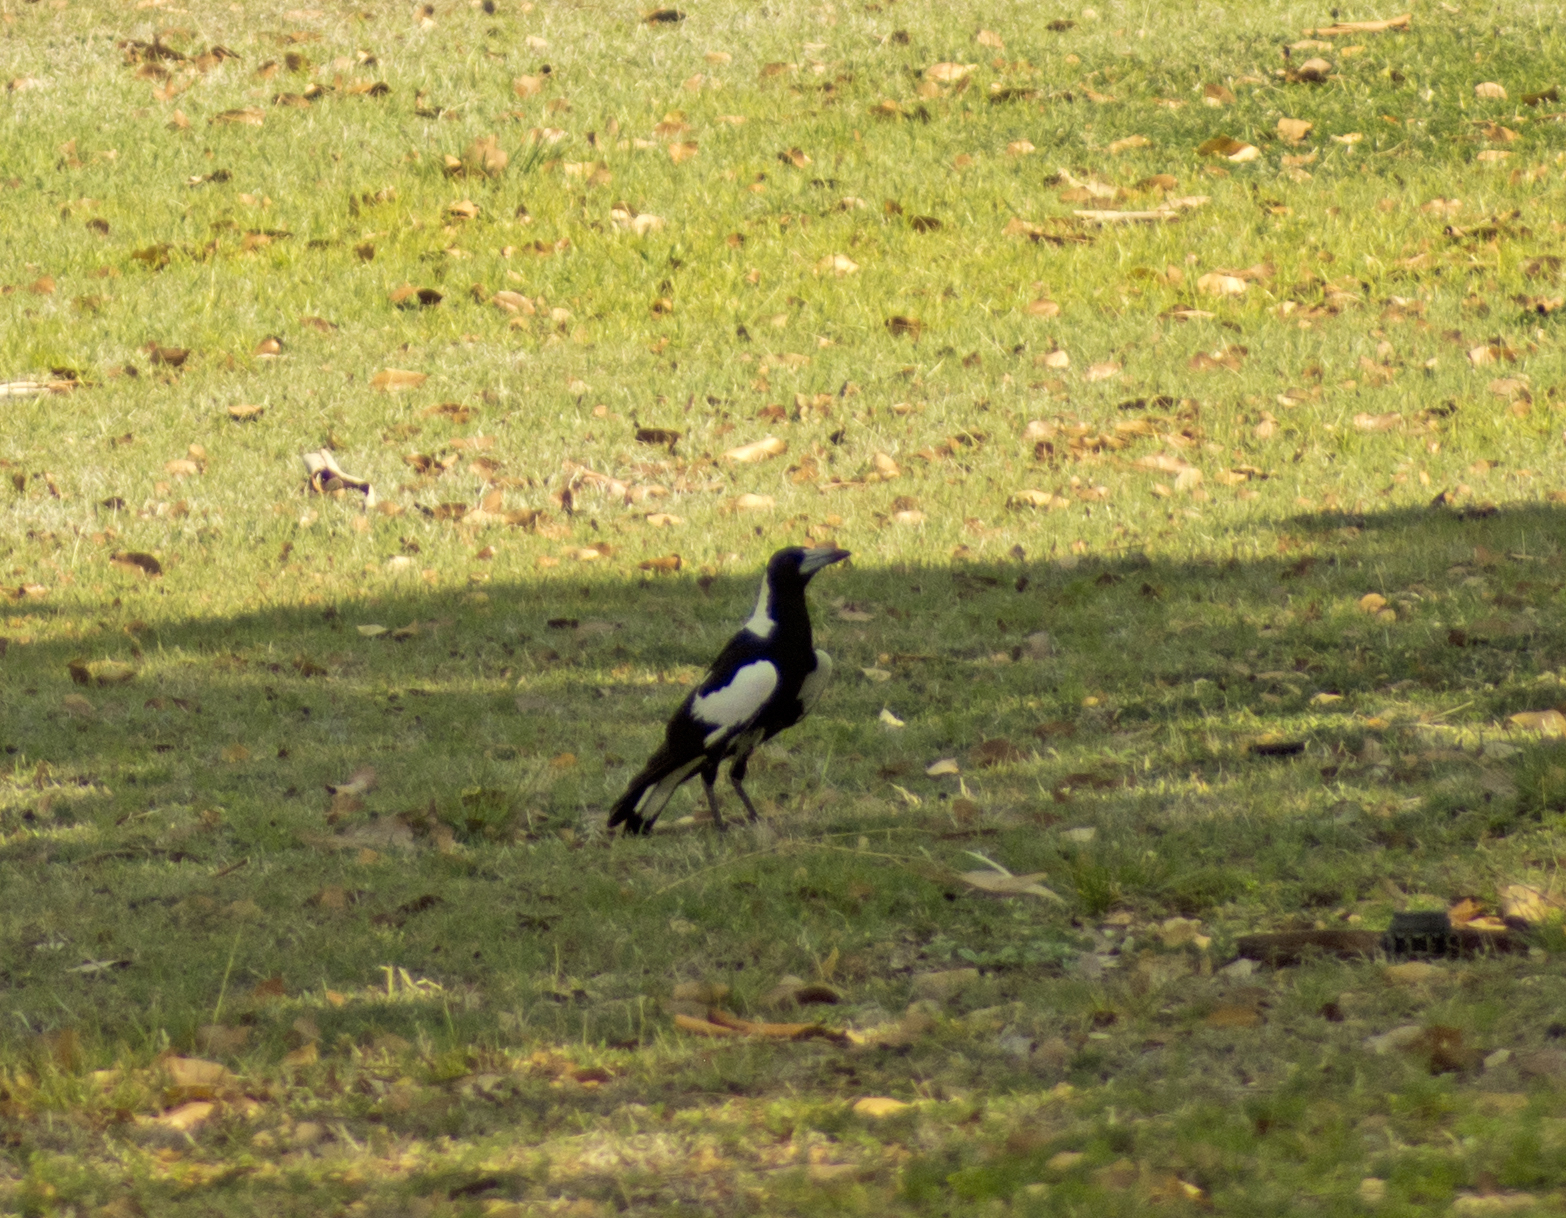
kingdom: Animalia
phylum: Chordata
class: Aves
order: Passeriformes
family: Cracticidae
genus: Gymnorhina
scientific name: Gymnorhina tibicen
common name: Australian magpie
